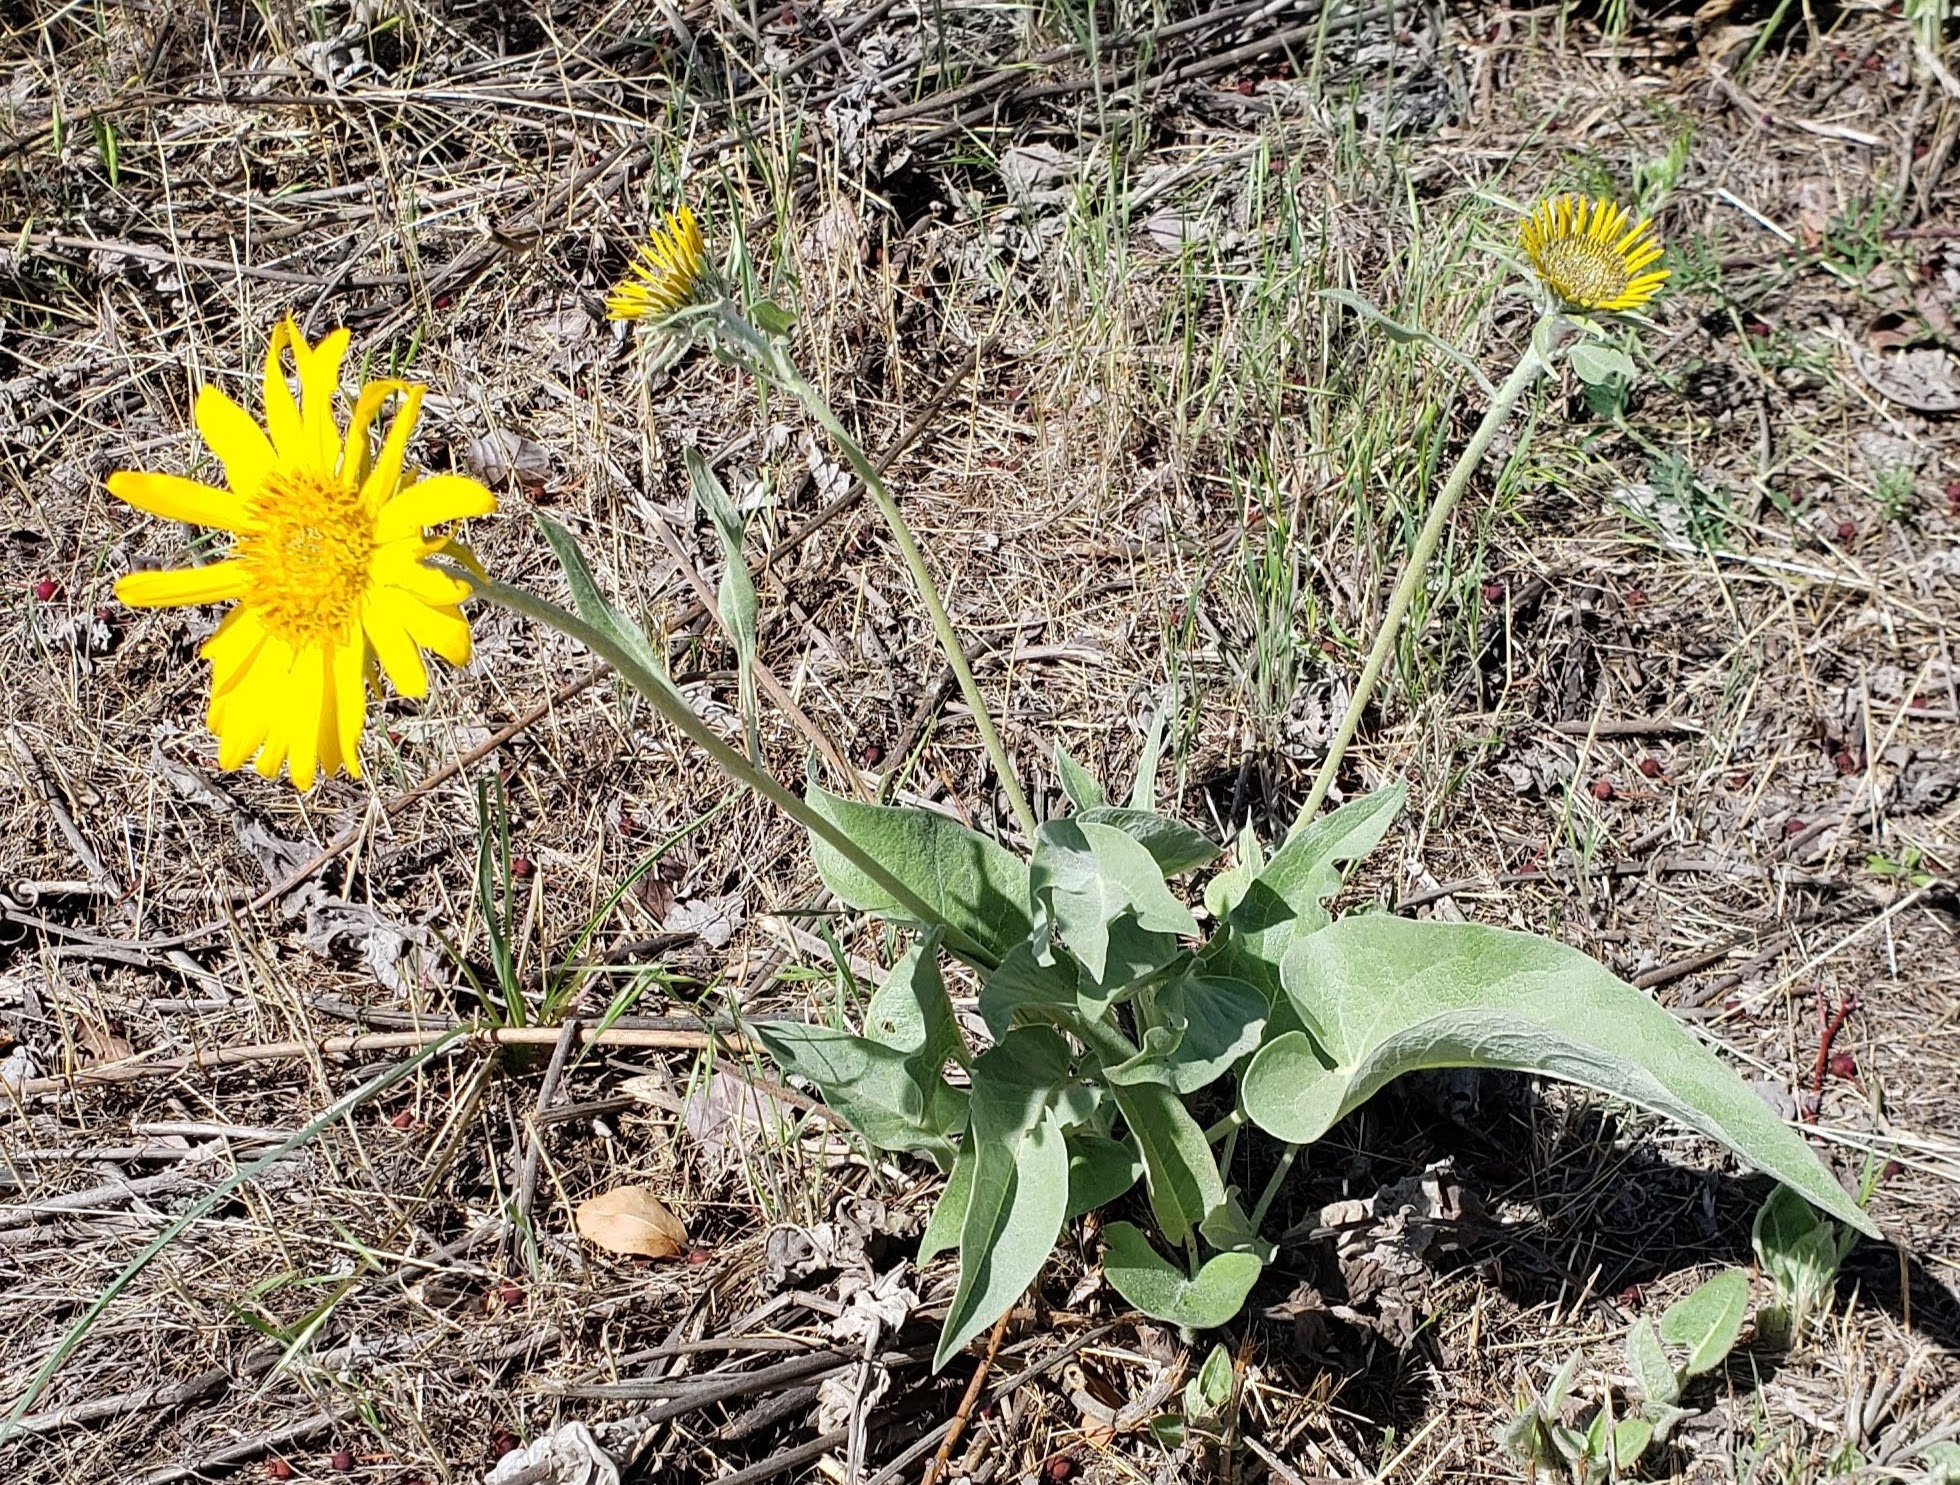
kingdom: Plantae
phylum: Tracheophyta
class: Magnoliopsida
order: Asterales
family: Asteraceae
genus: Wyethia
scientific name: Wyethia sagittata
